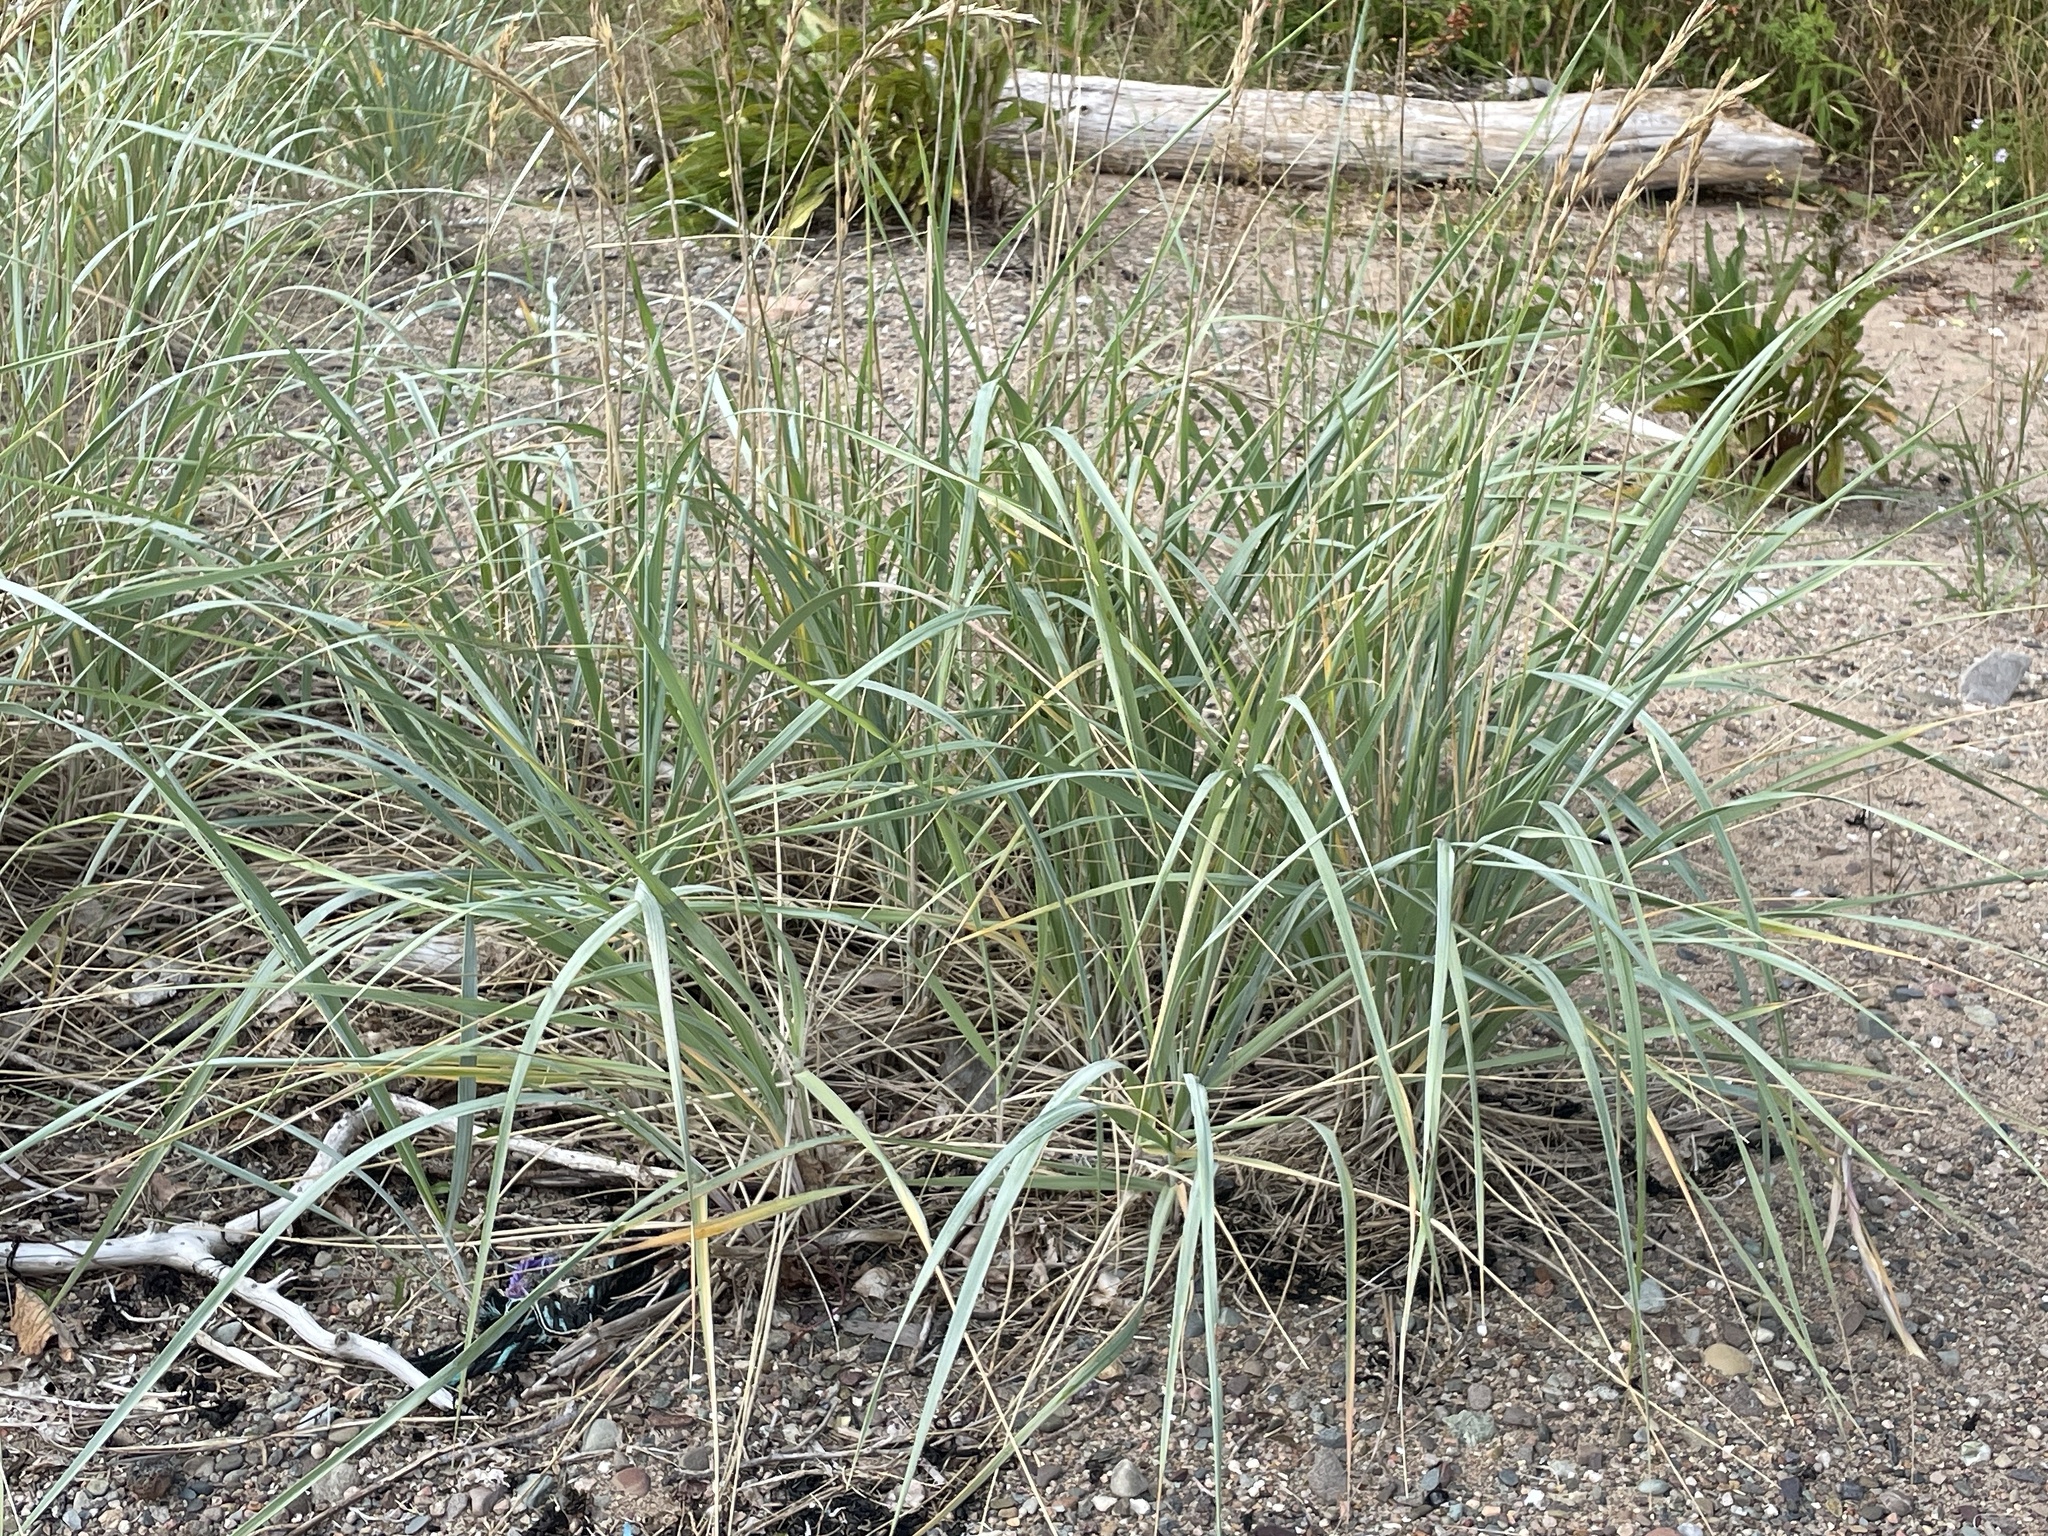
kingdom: Plantae
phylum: Tracheophyta
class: Liliopsida
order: Poales
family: Poaceae
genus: Leymus
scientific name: Leymus mollis
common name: American dune grass
